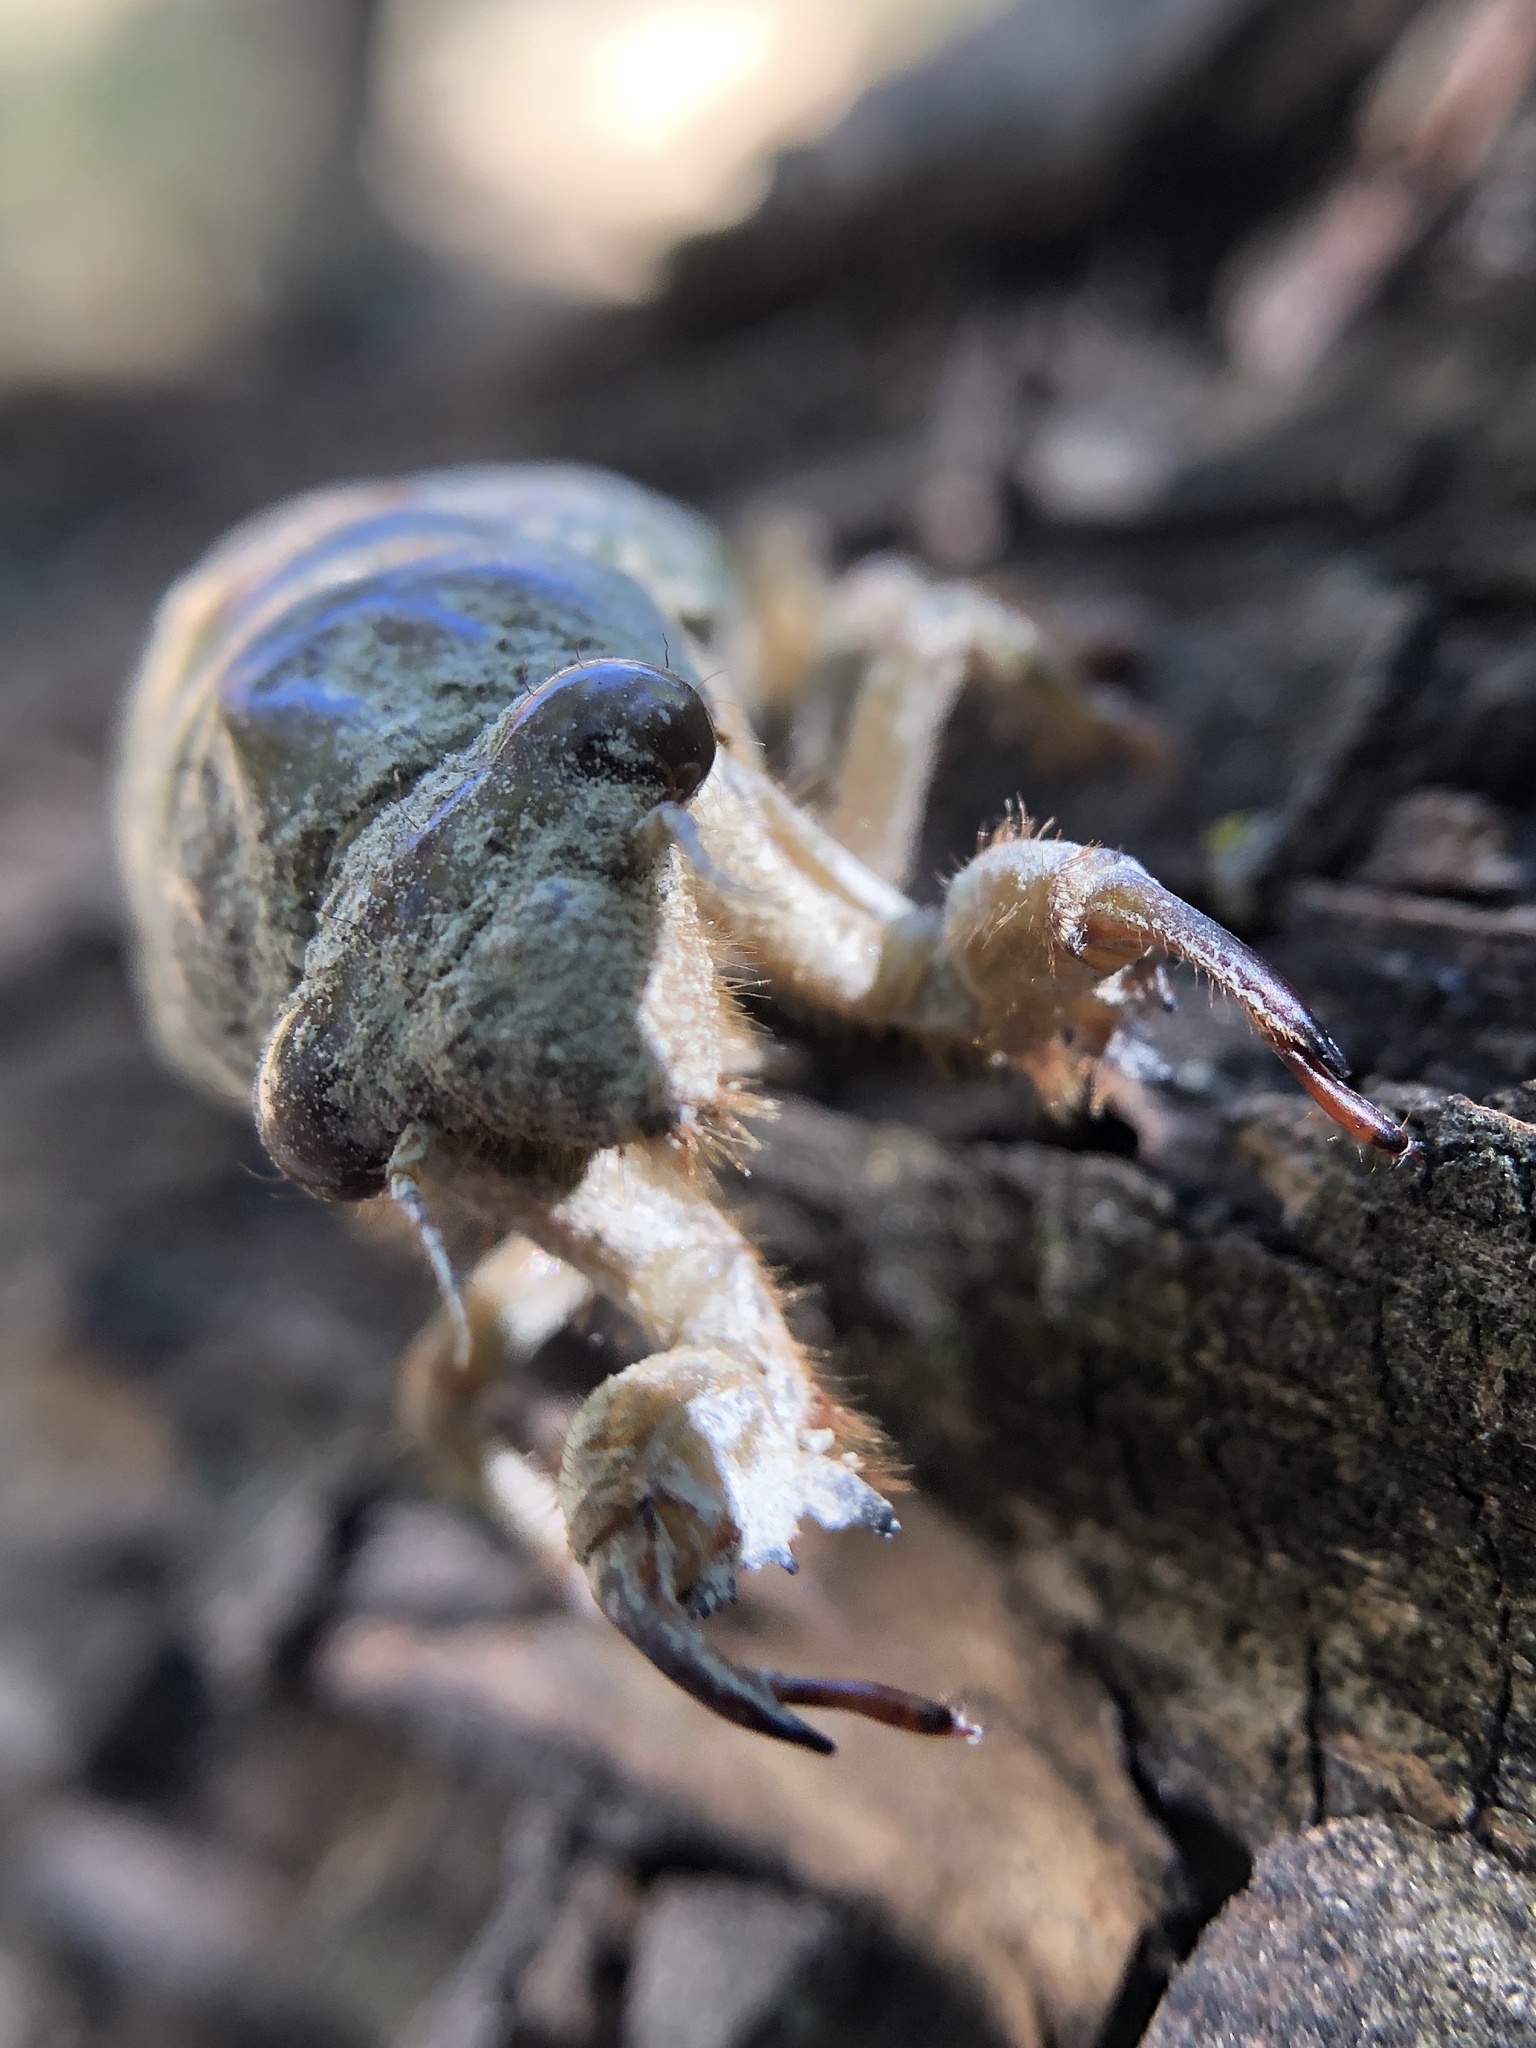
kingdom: Animalia
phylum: Arthropoda
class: Insecta
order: Hemiptera
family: Cicadidae
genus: Lyristes
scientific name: Lyristes plebejus
